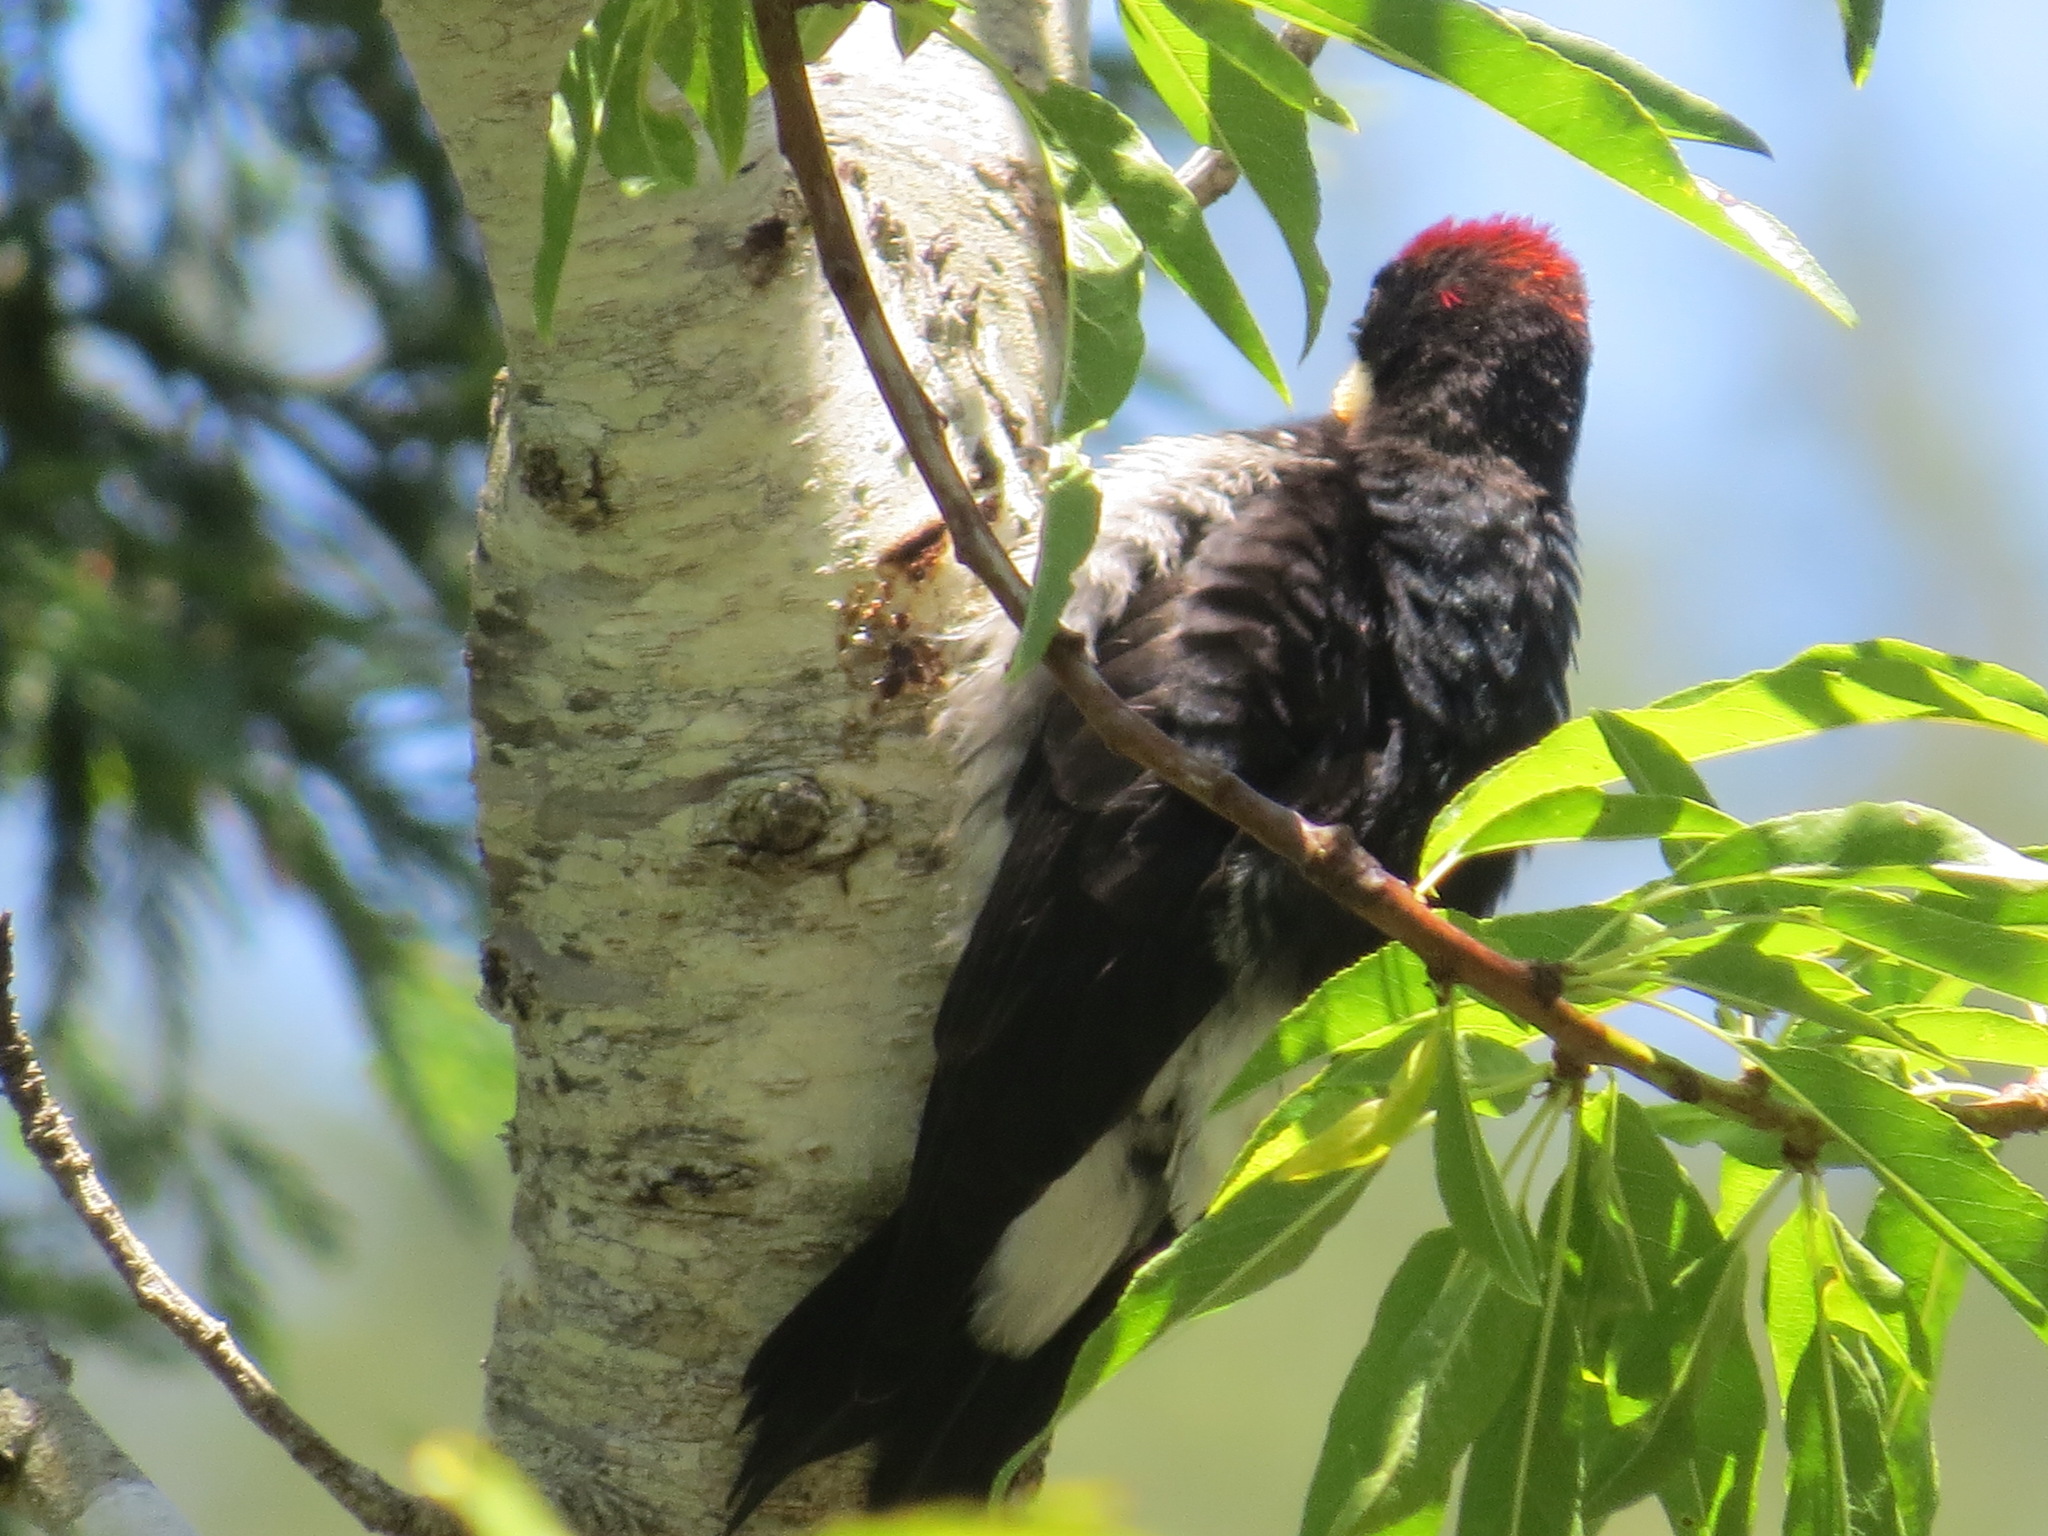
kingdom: Animalia
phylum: Chordata
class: Aves
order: Piciformes
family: Picidae
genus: Melanerpes
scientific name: Melanerpes formicivorus
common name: Acorn woodpecker
